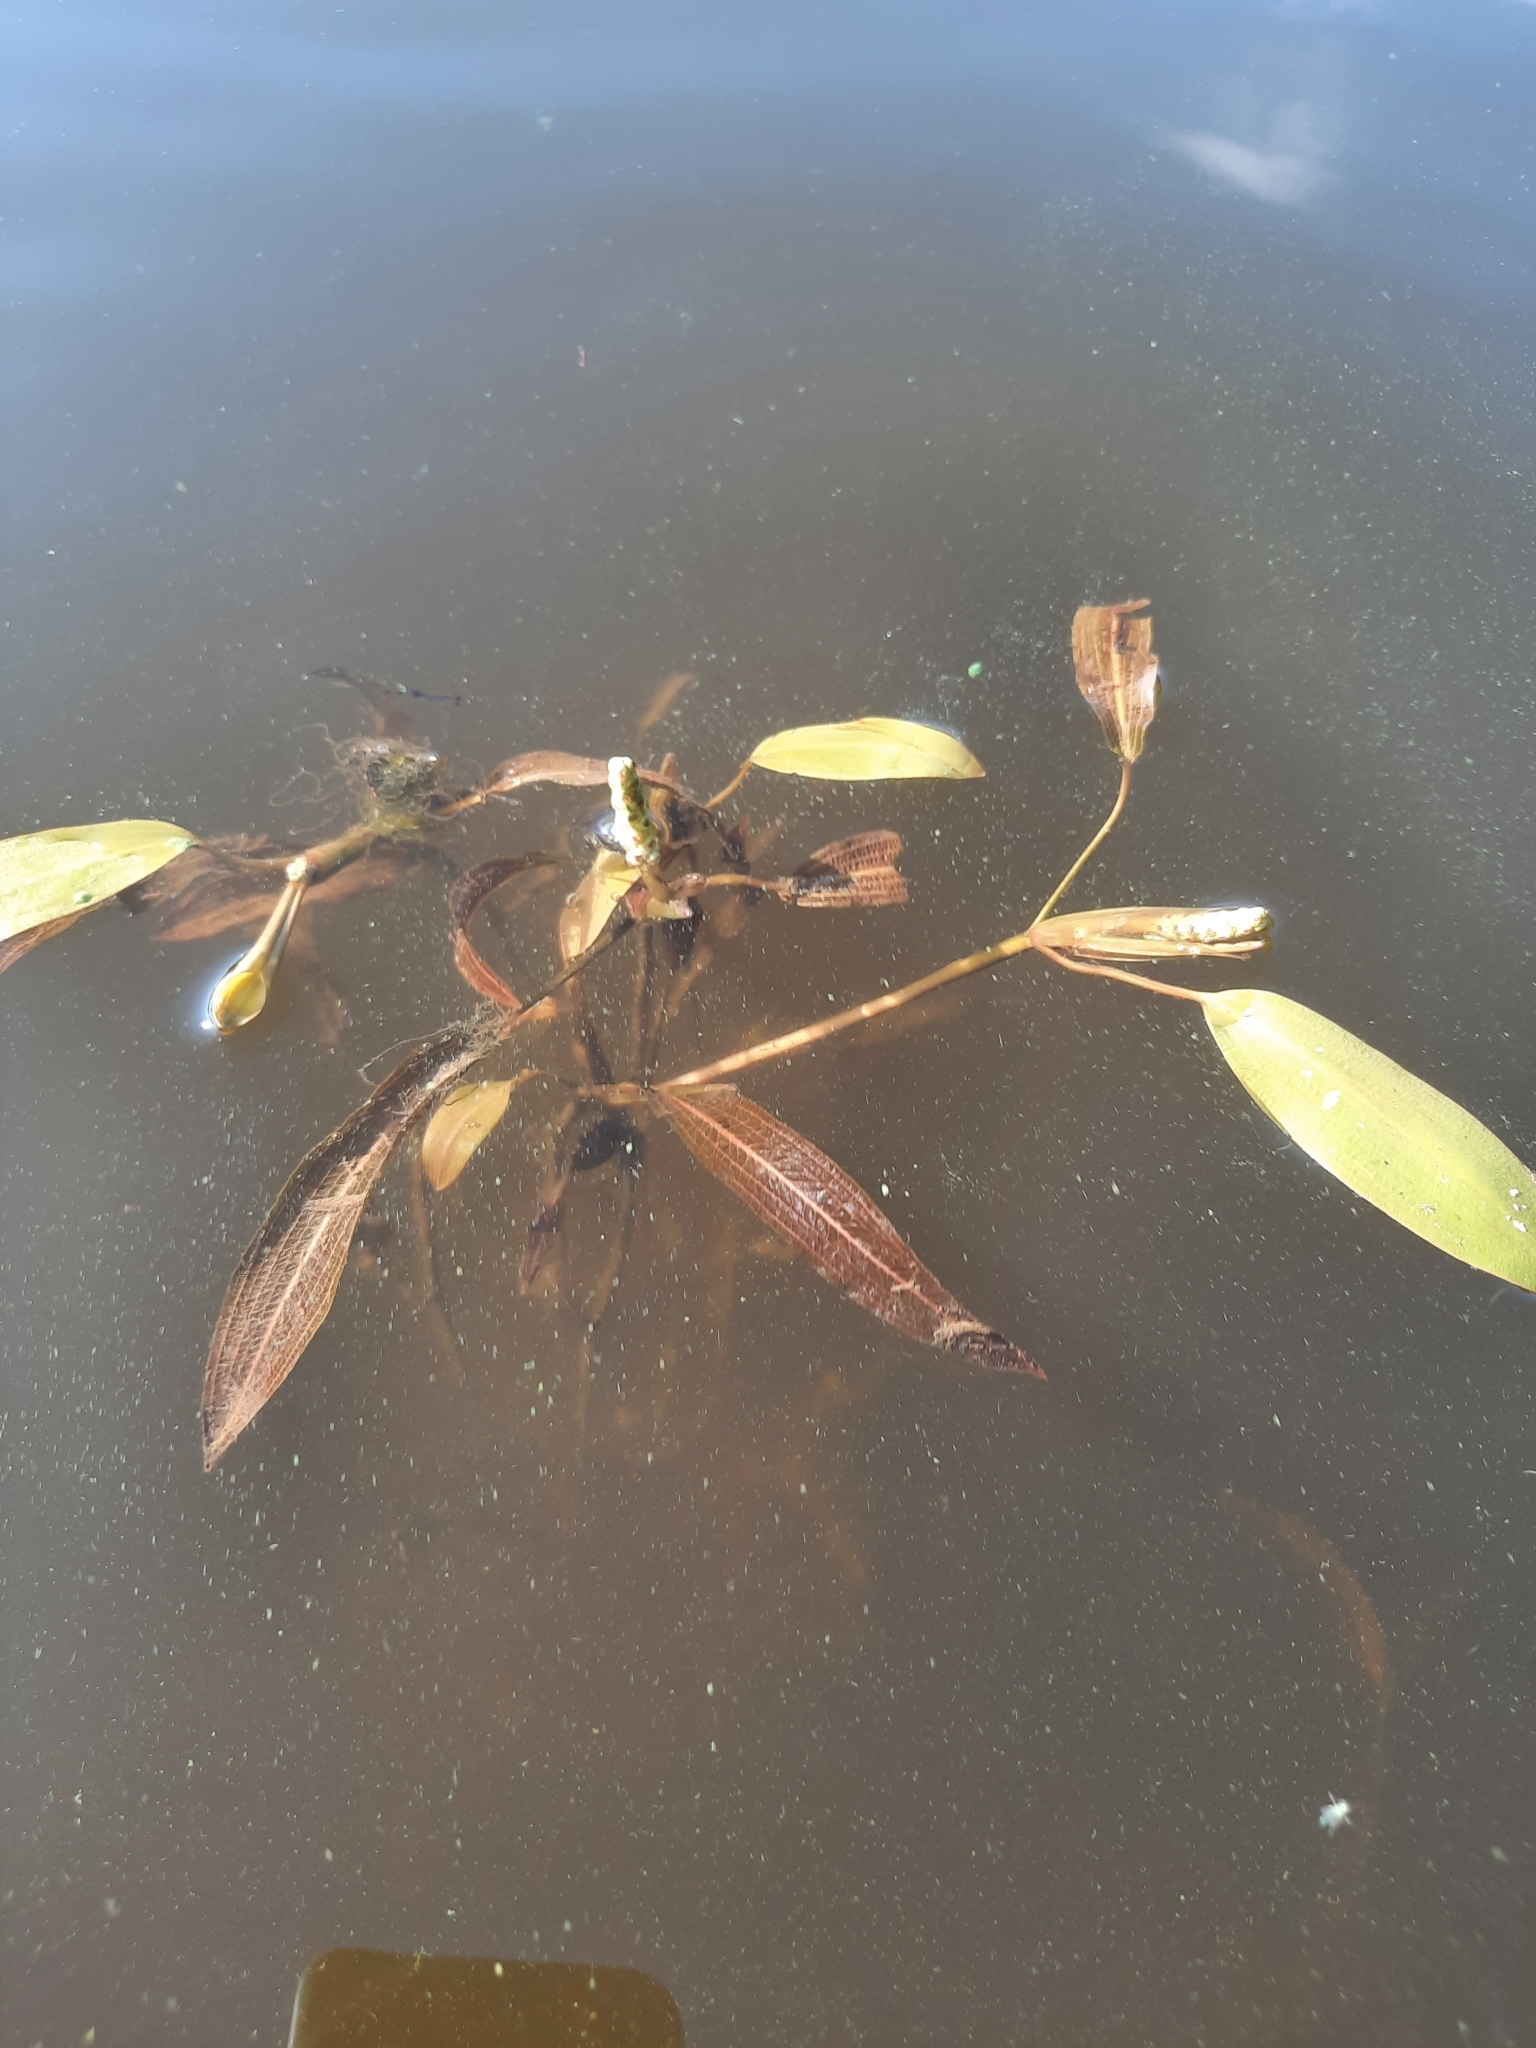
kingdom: Plantae
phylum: Tracheophyta
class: Liliopsida
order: Alismatales
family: Potamogetonaceae
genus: Potamogeton
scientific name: Potamogeton alpinus
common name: Red pondweed
